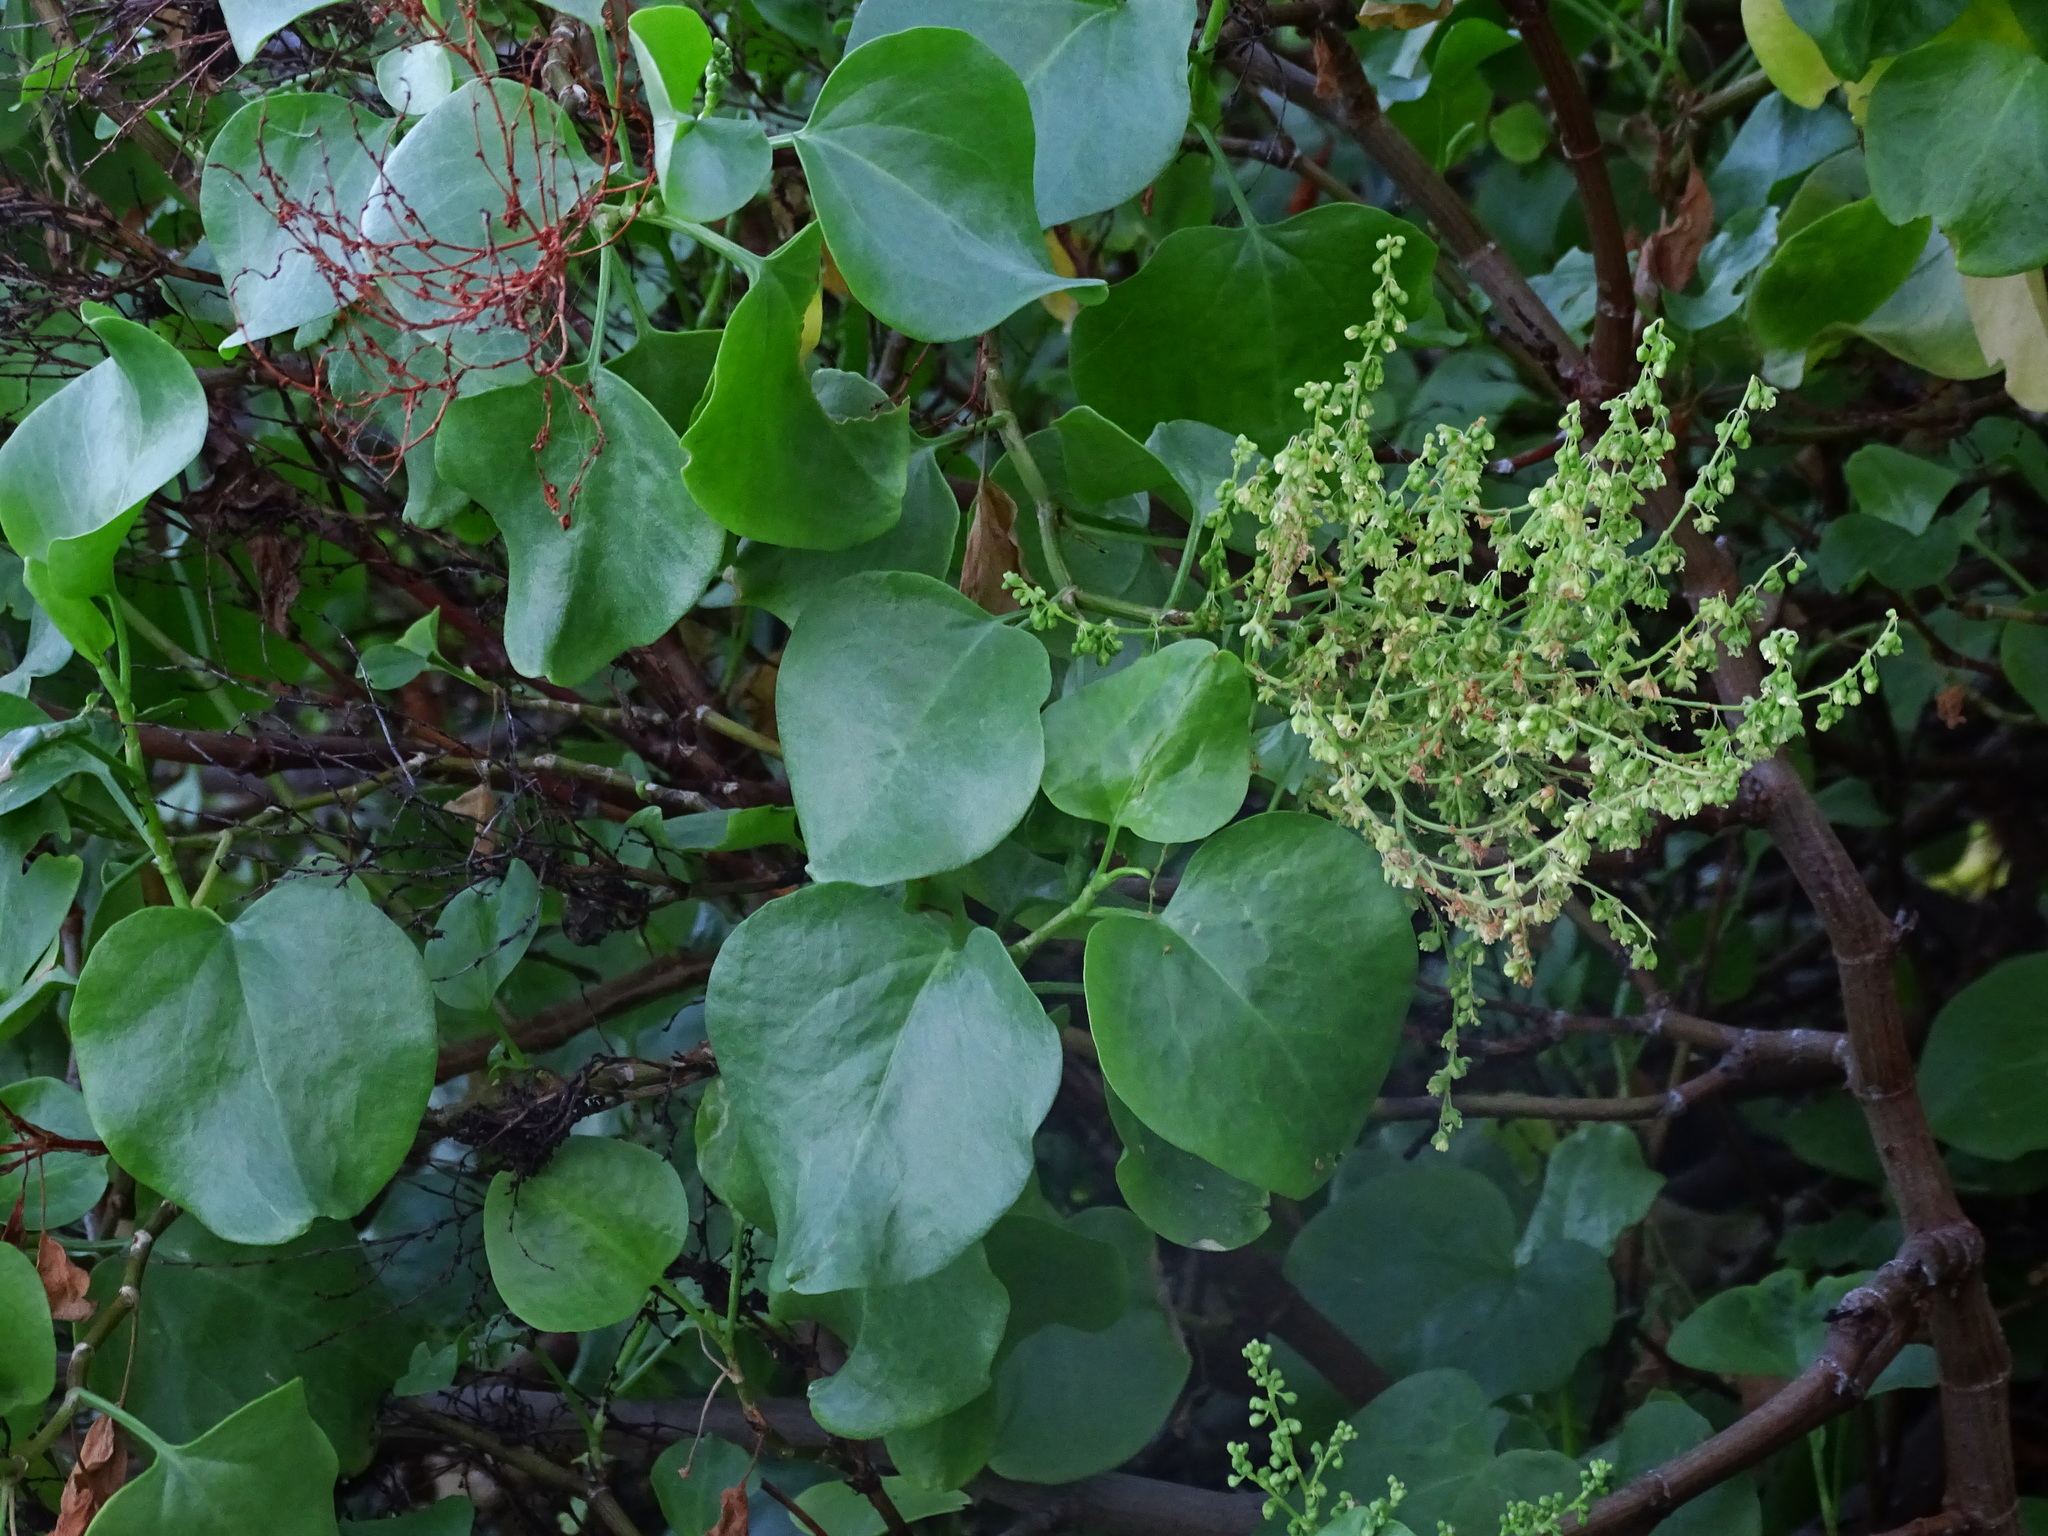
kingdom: Plantae
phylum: Tracheophyta
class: Magnoliopsida
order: Caryophyllales
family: Polygonaceae
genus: Rumex
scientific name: Rumex lunaria
